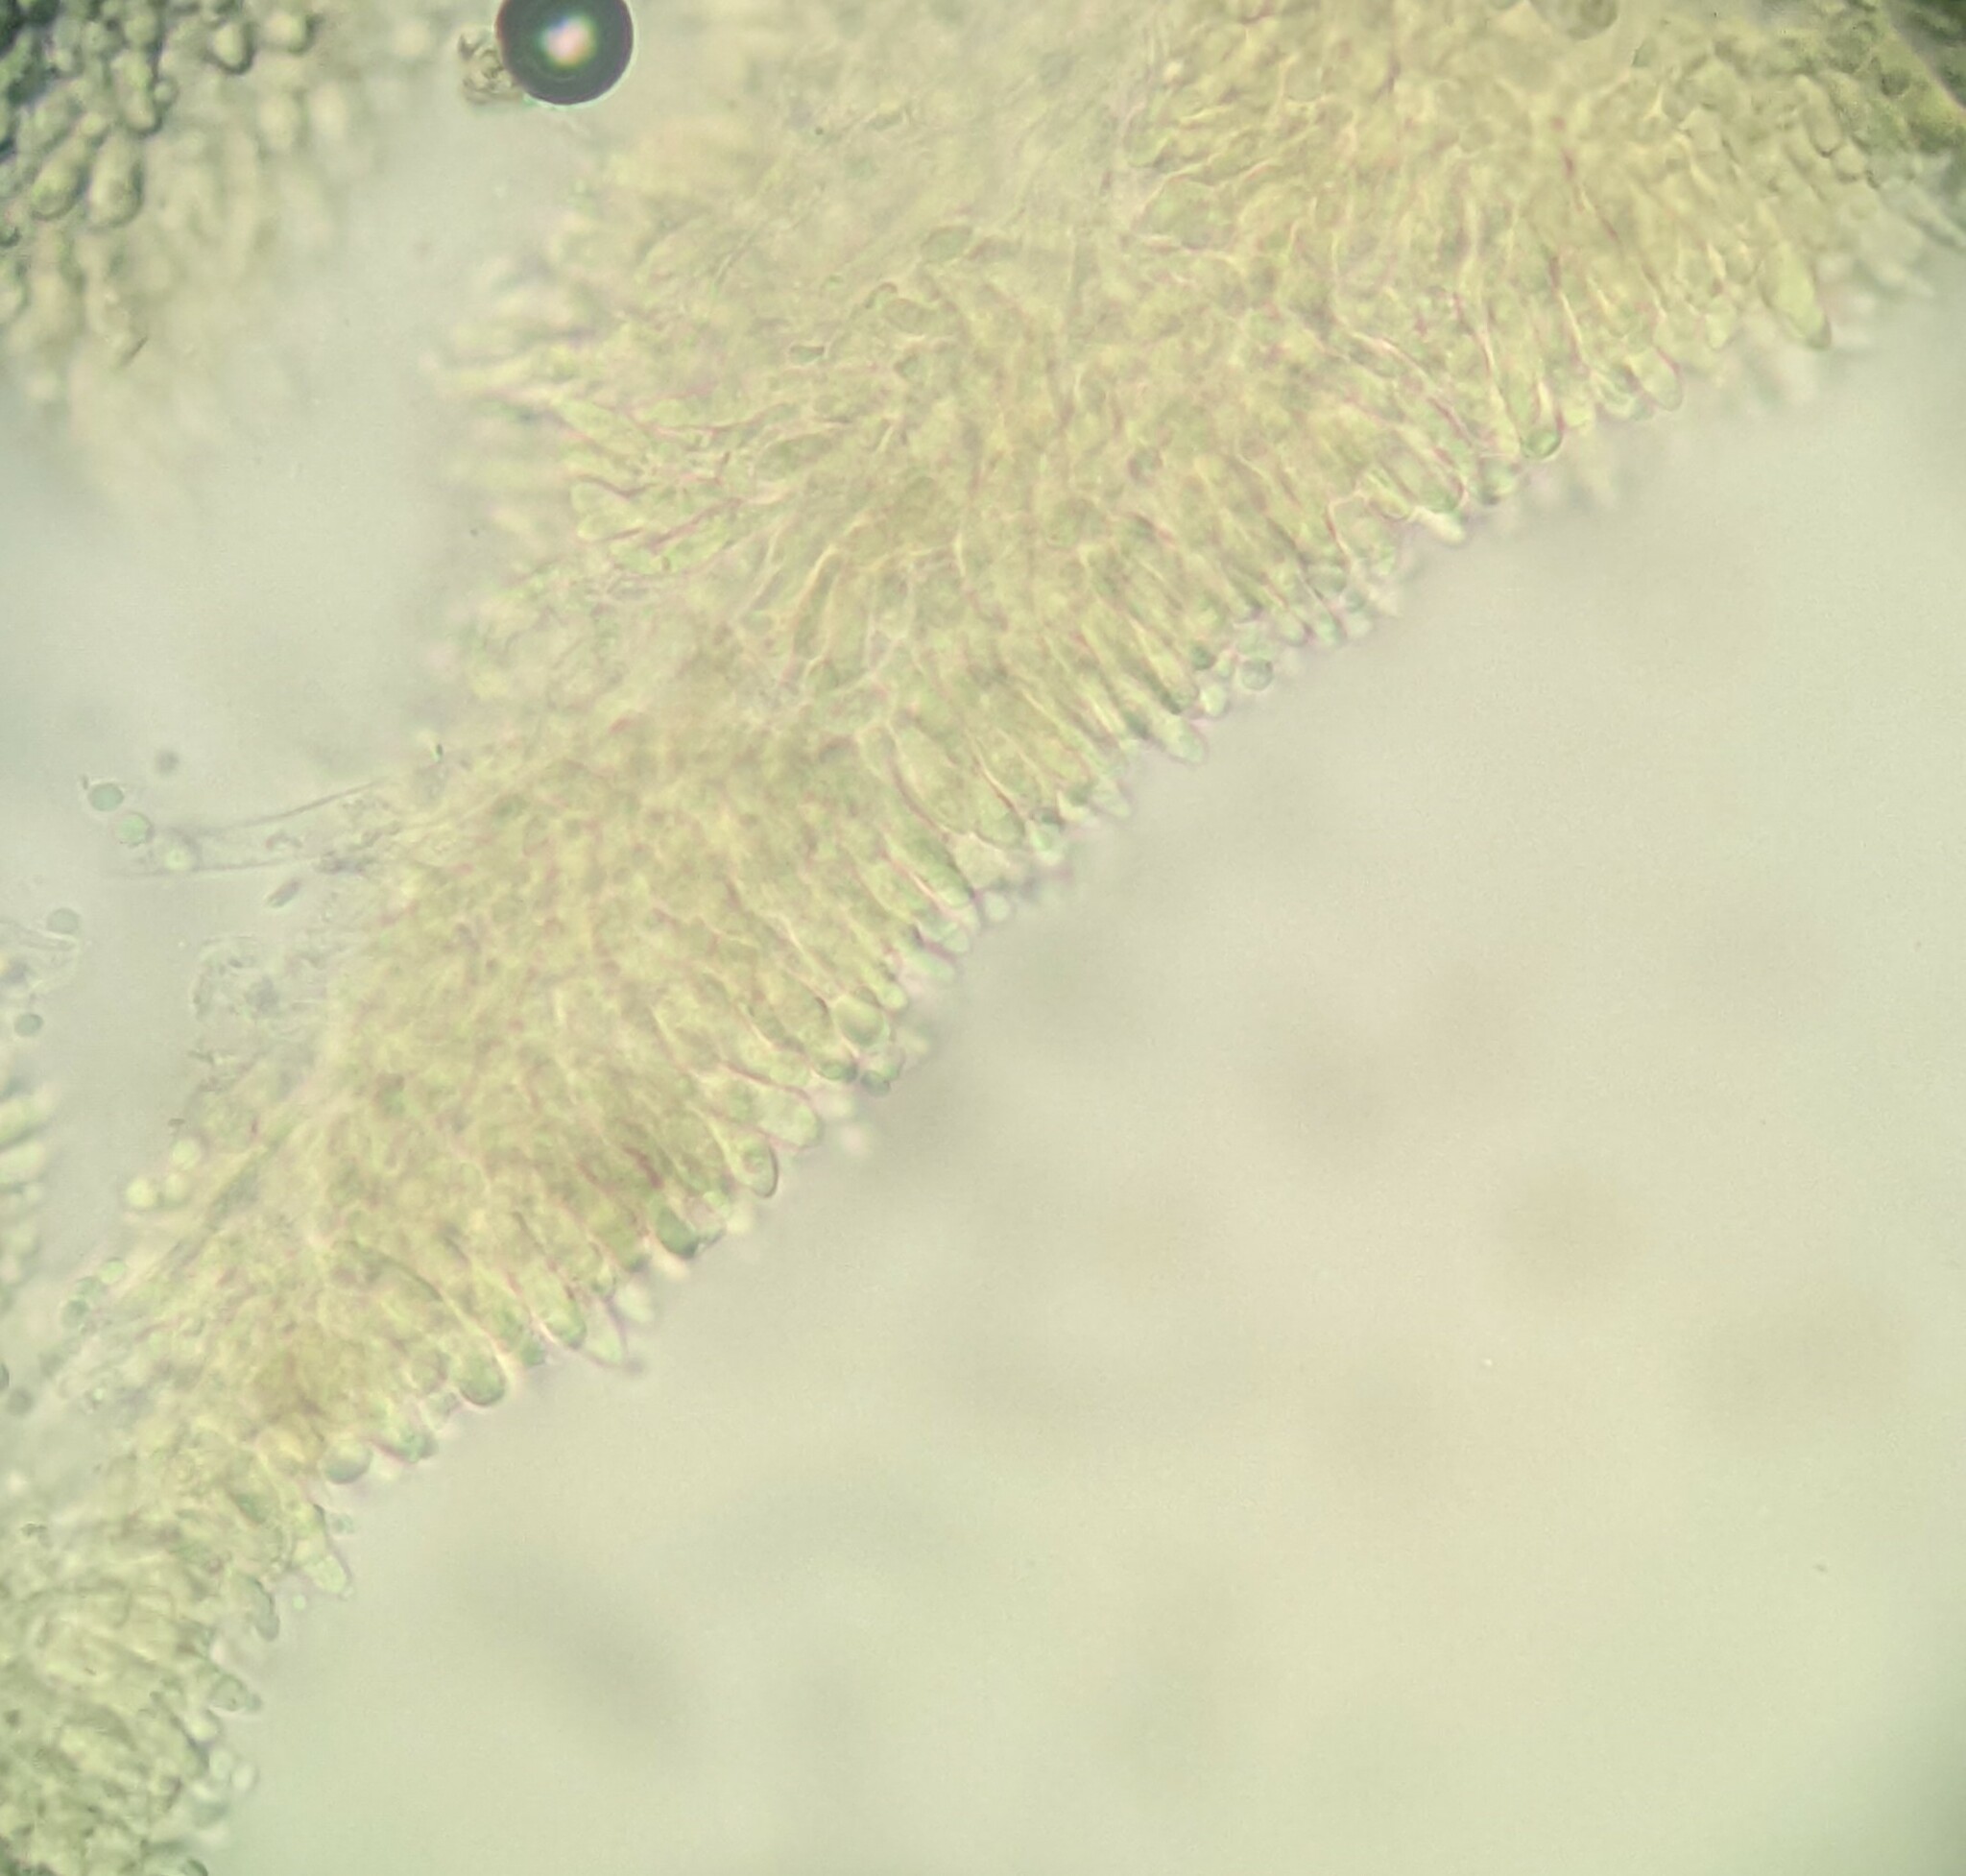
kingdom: Fungi
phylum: Basidiomycota
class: Agaricomycetes
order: Agaricales
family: Marasmiaceae
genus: Crinipellis
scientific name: Crinipellis corvina
